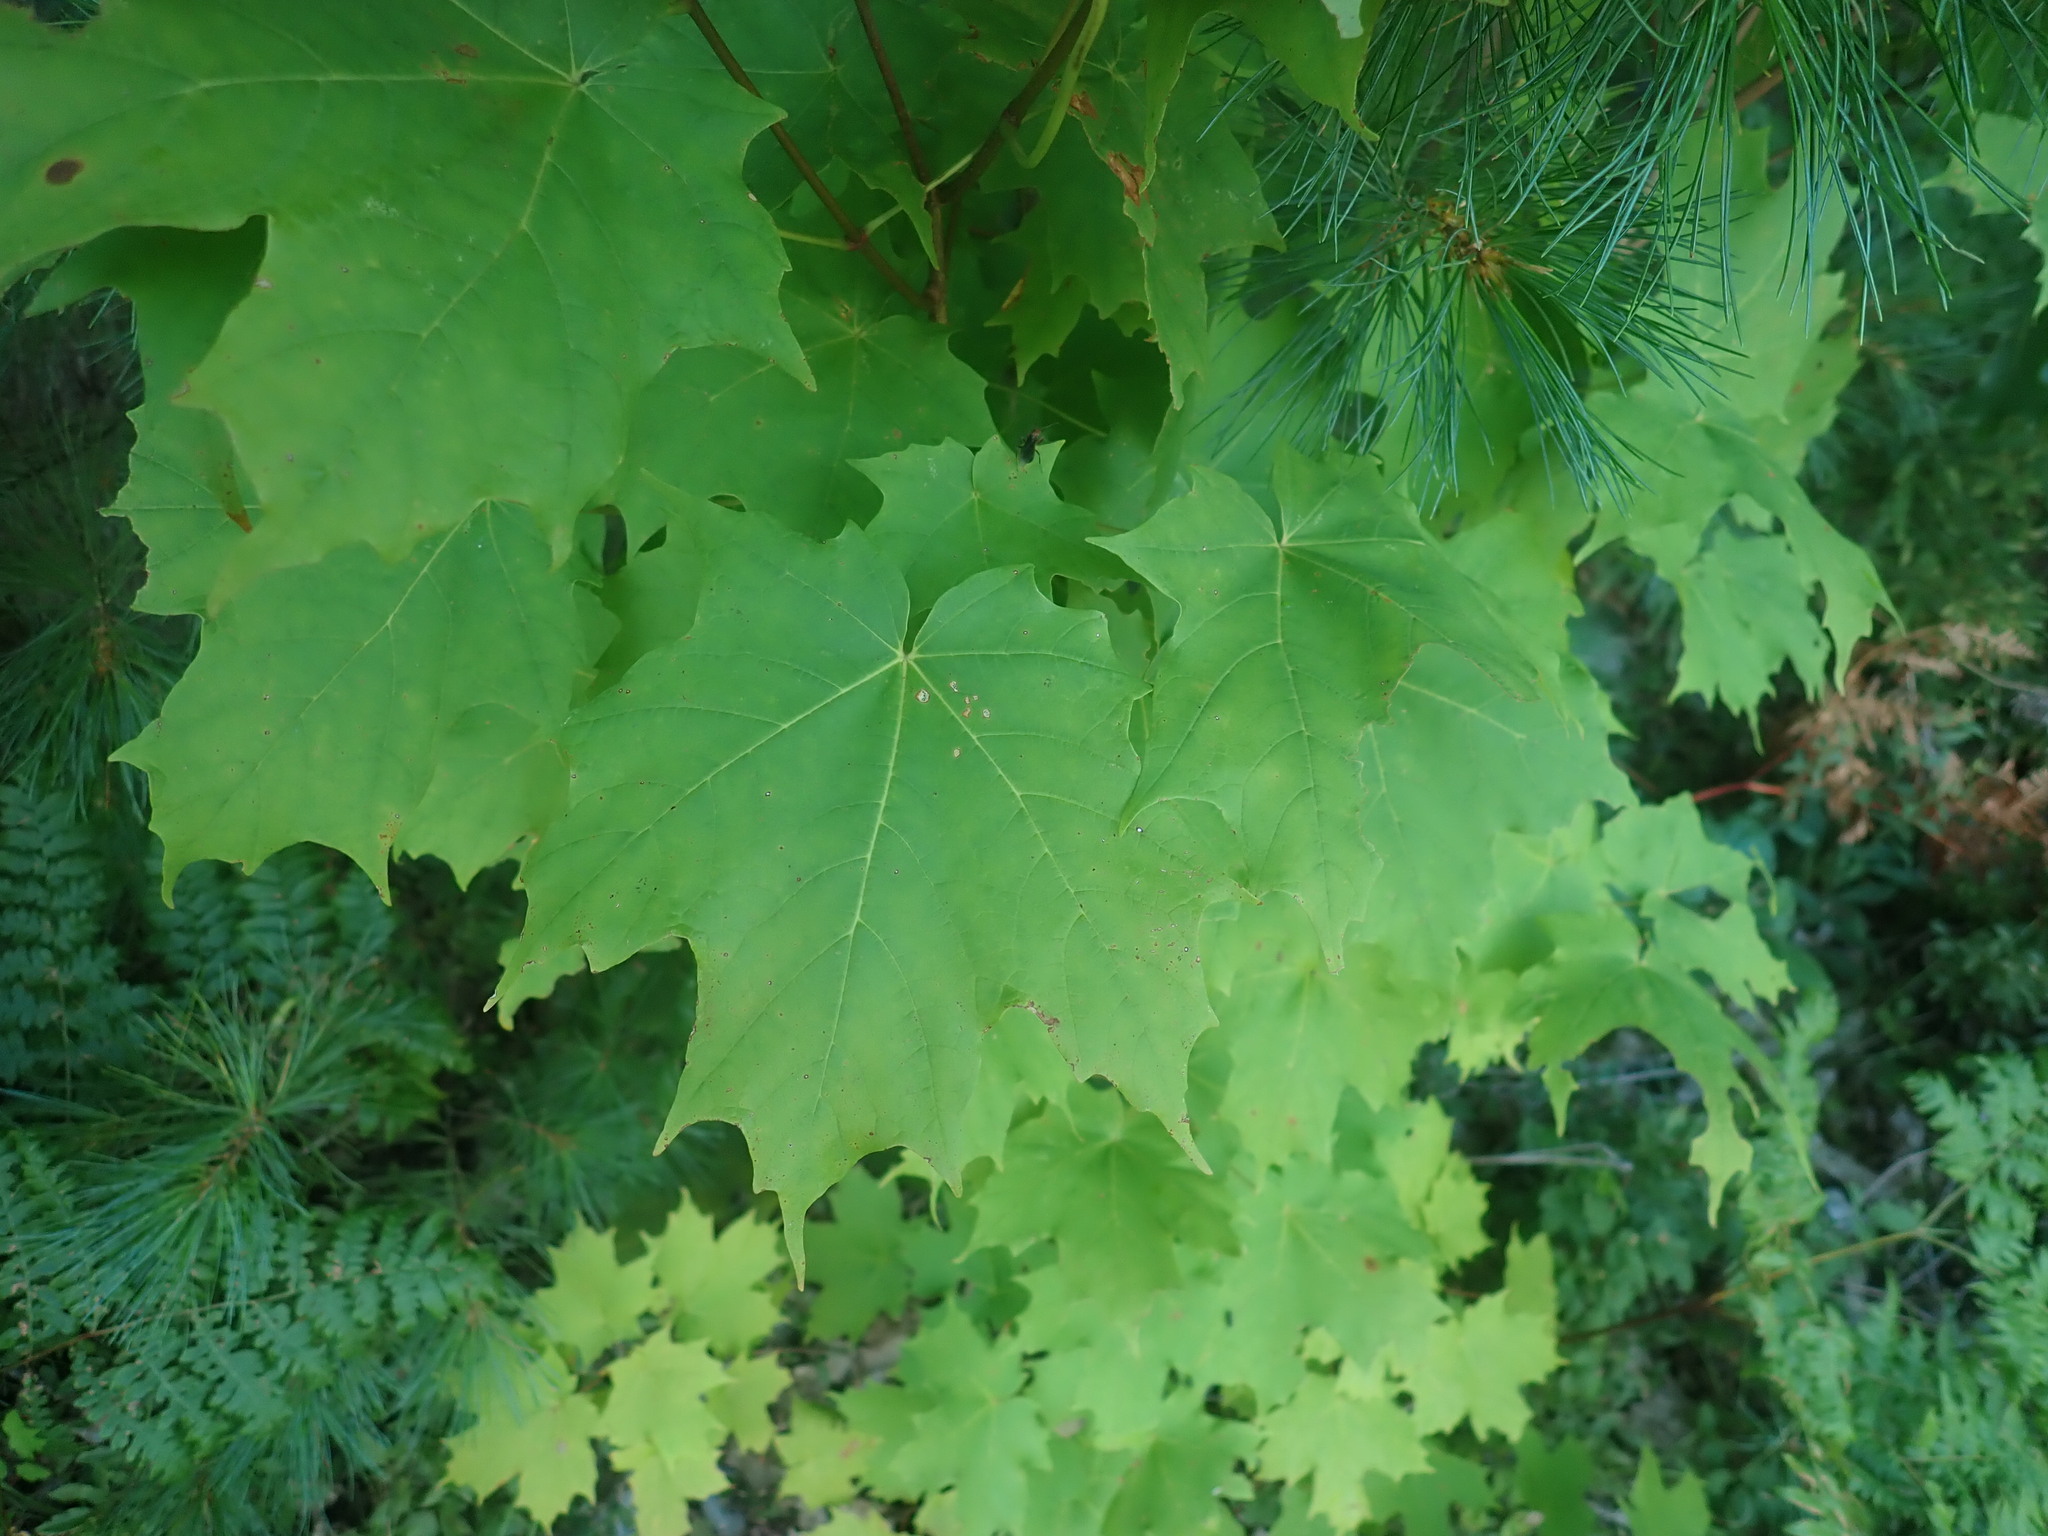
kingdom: Plantae
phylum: Tracheophyta
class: Magnoliopsida
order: Sapindales
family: Sapindaceae
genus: Acer
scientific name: Acer saccharum
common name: Sugar maple
